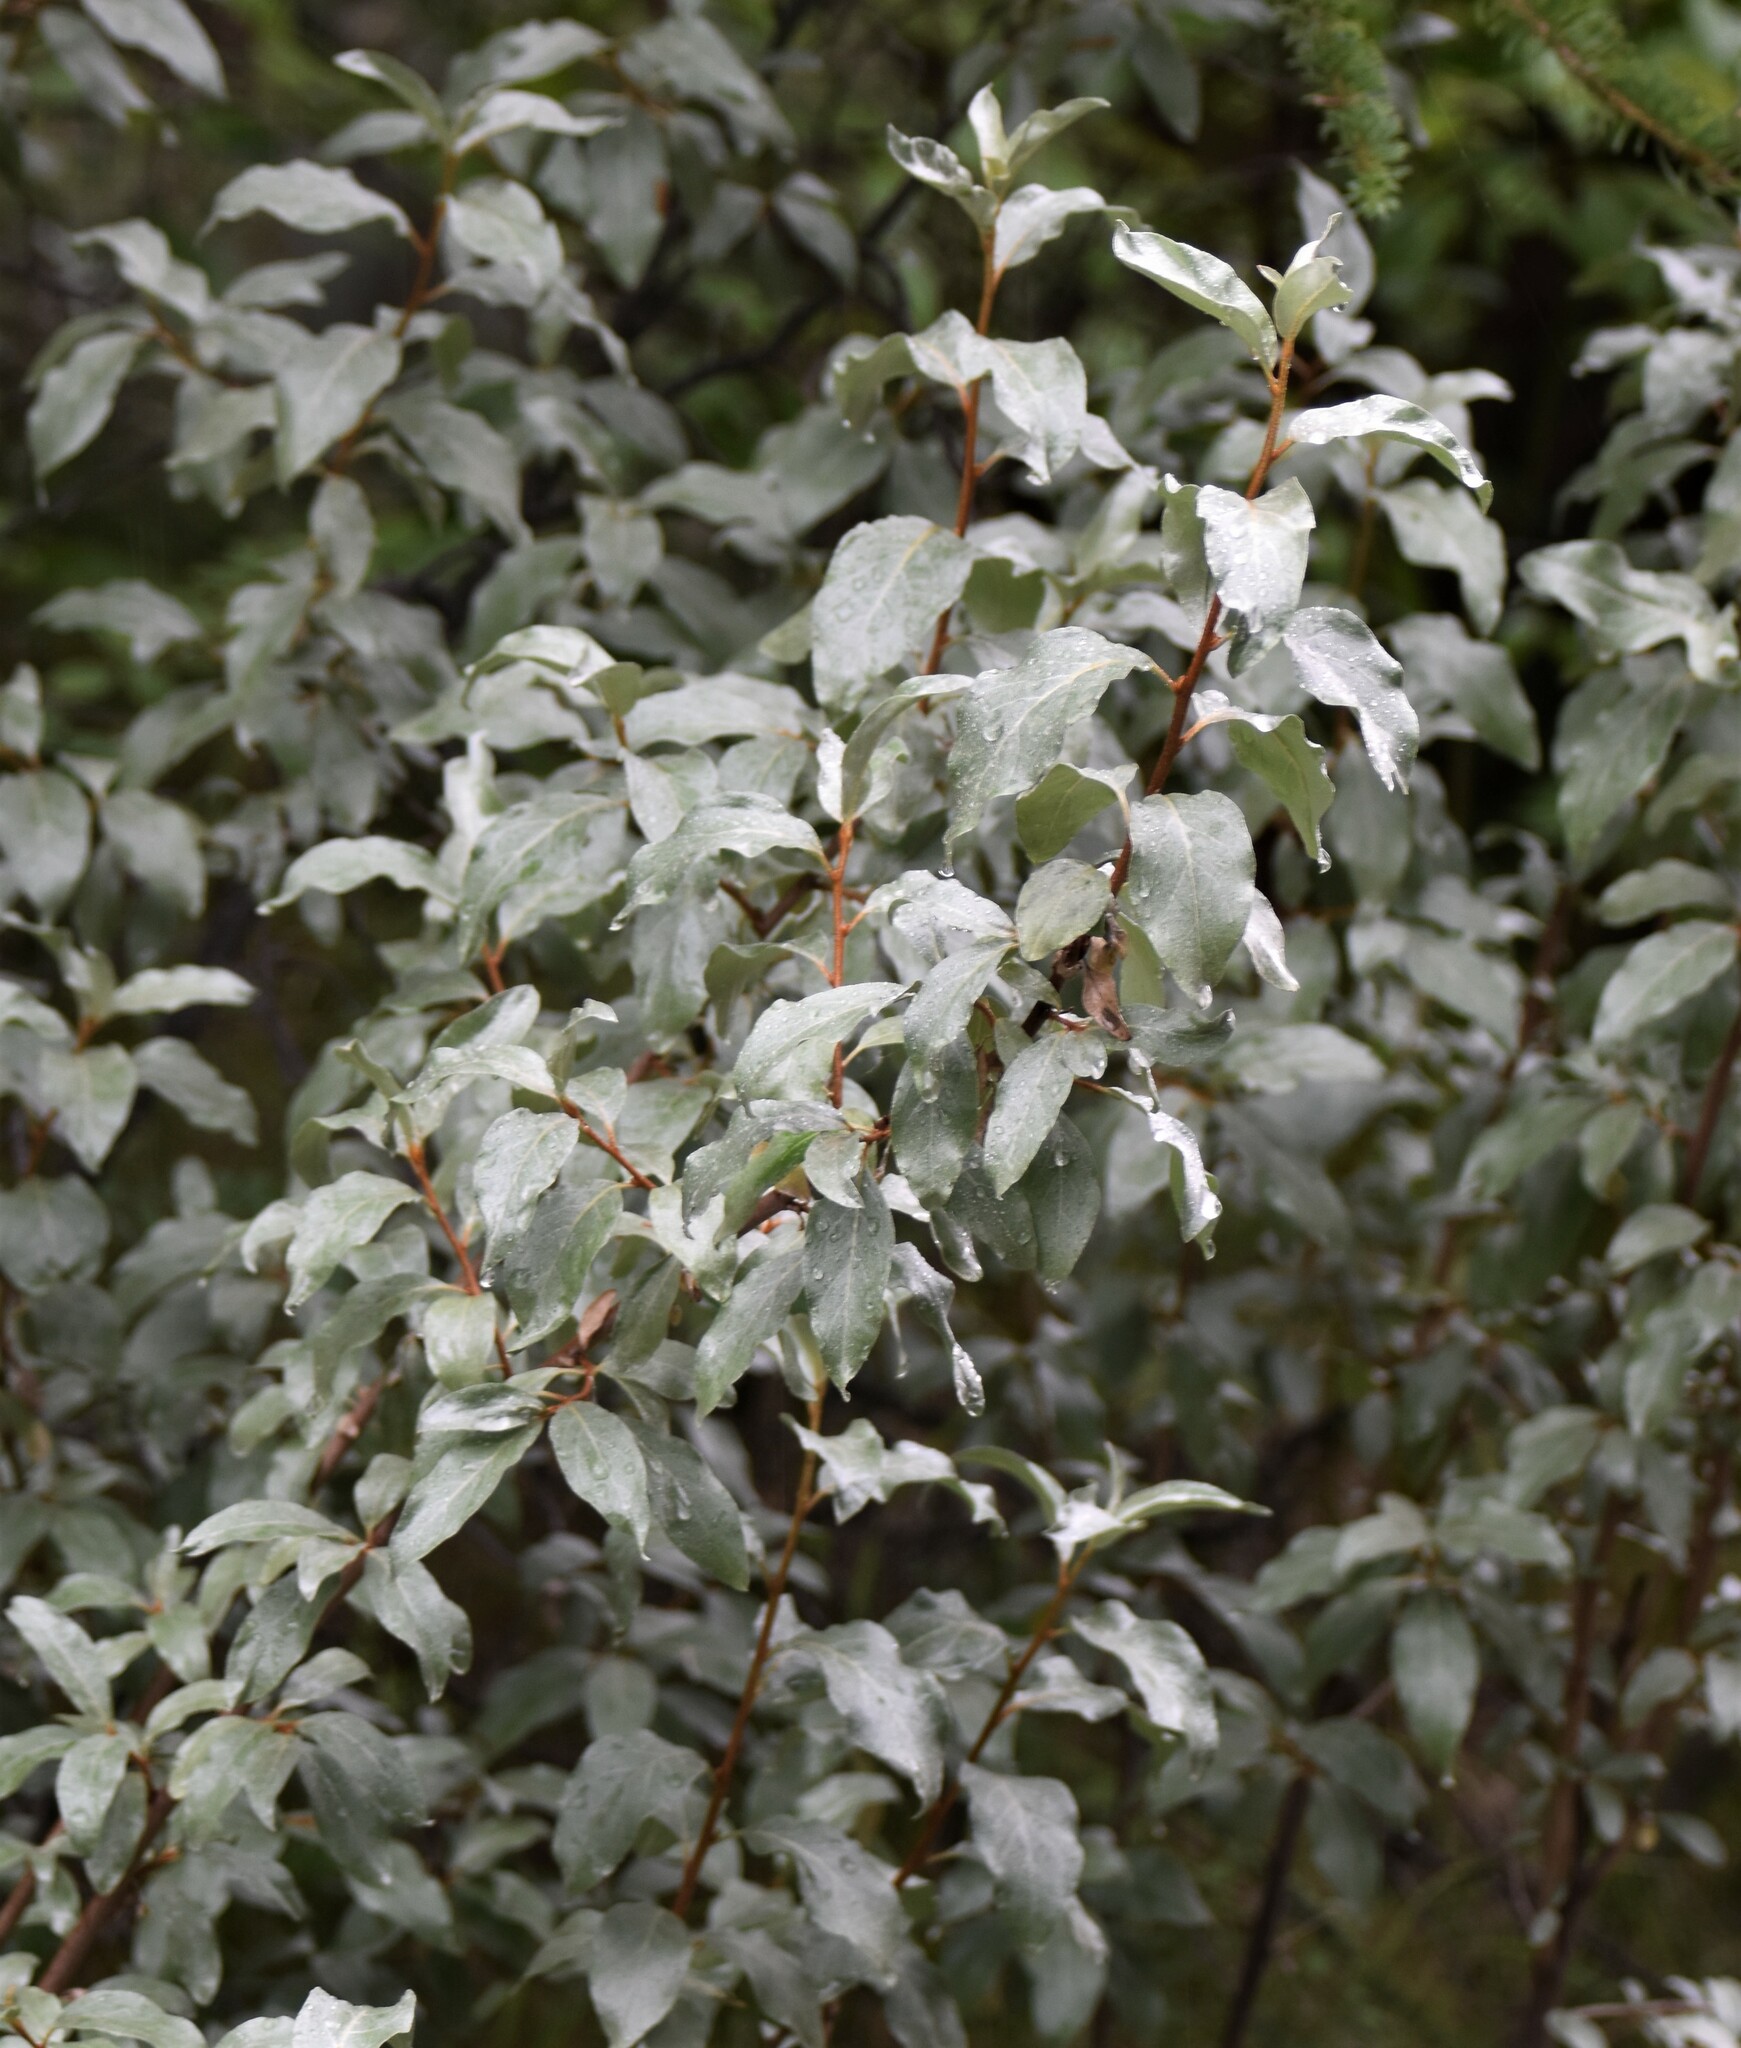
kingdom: Plantae
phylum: Tracheophyta
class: Magnoliopsida
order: Rosales
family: Elaeagnaceae
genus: Elaeagnus
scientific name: Elaeagnus commutata
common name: Silverberry
